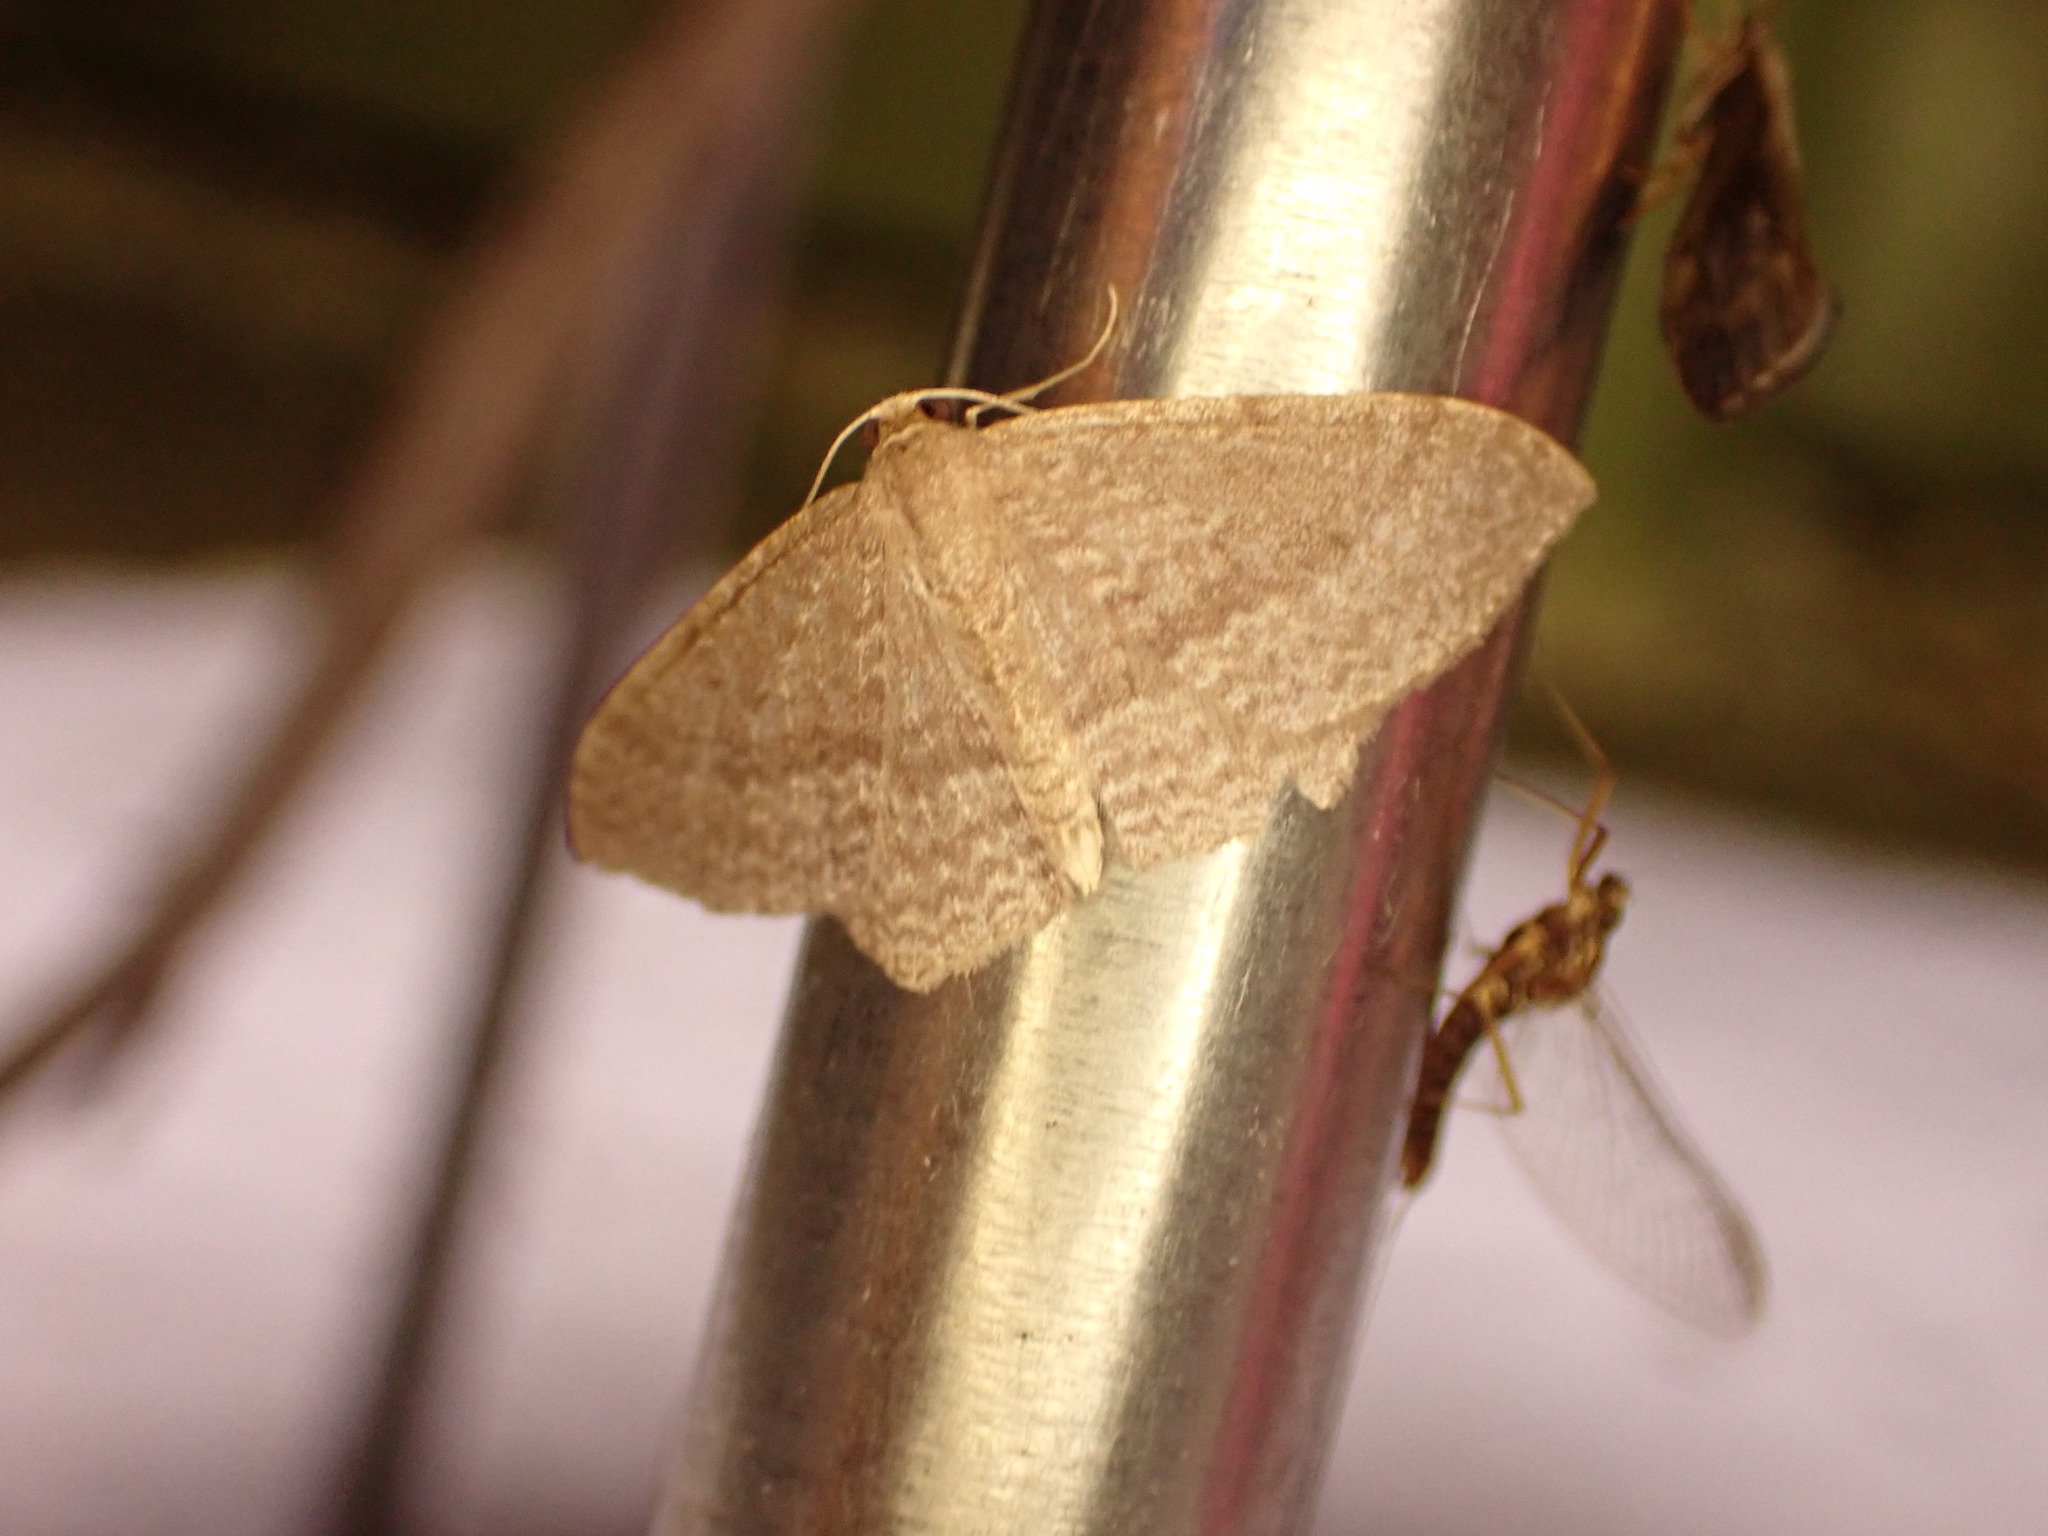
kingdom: Animalia
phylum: Arthropoda
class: Insecta
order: Lepidoptera
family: Geometridae
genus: Poecilasthena
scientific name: Poecilasthena schistaria
